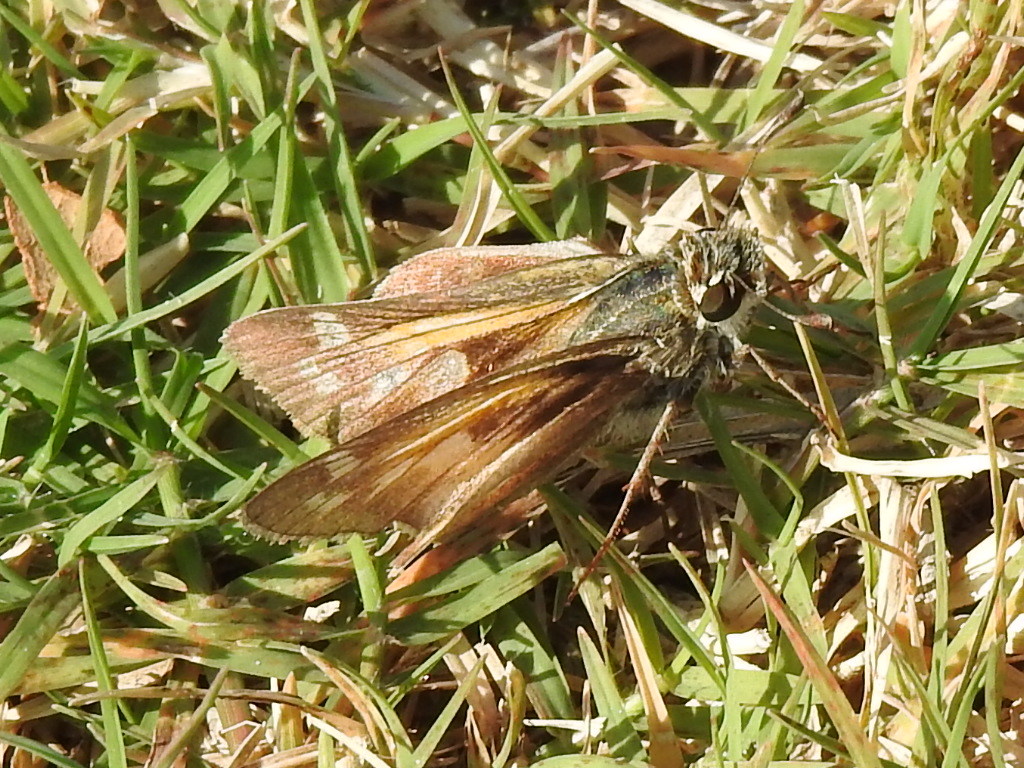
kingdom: Animalia
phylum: Arthropoda
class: Insecta
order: Lepidoptera
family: Hesperiidae
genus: Atalopedes
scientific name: Atalopedes
